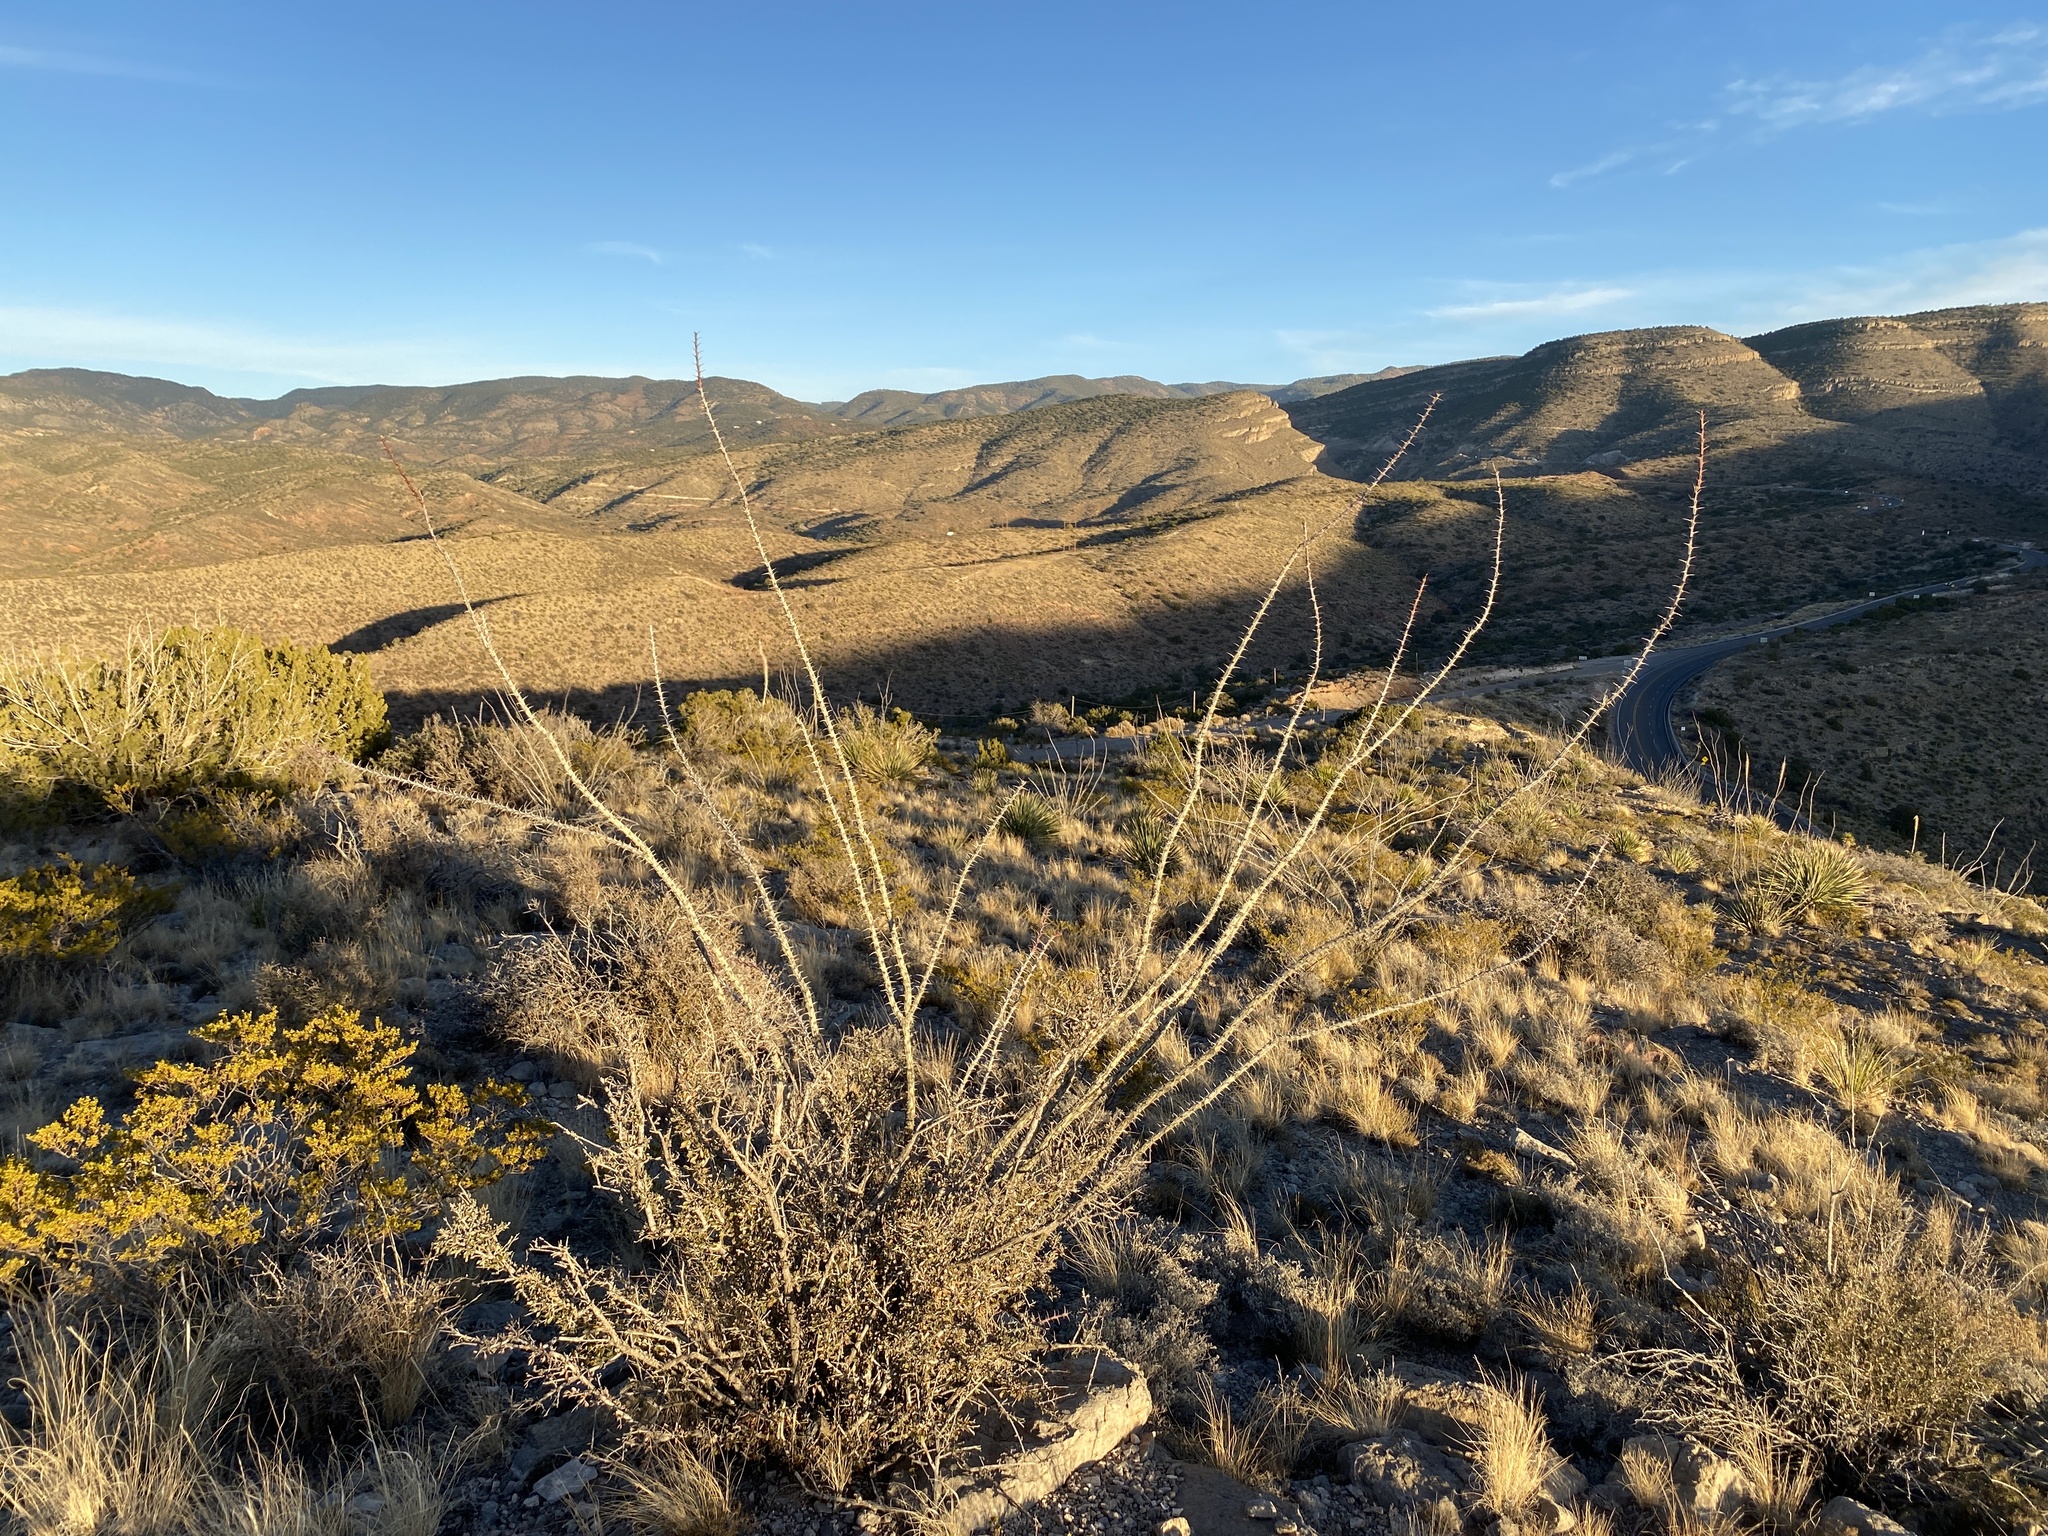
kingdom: Plantae
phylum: Tracheophyta
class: Magnoliopsida
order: Ericales
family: Fouquieriaceae
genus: Fouquieria
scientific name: Fouquieria splendens
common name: Vine-cactus
